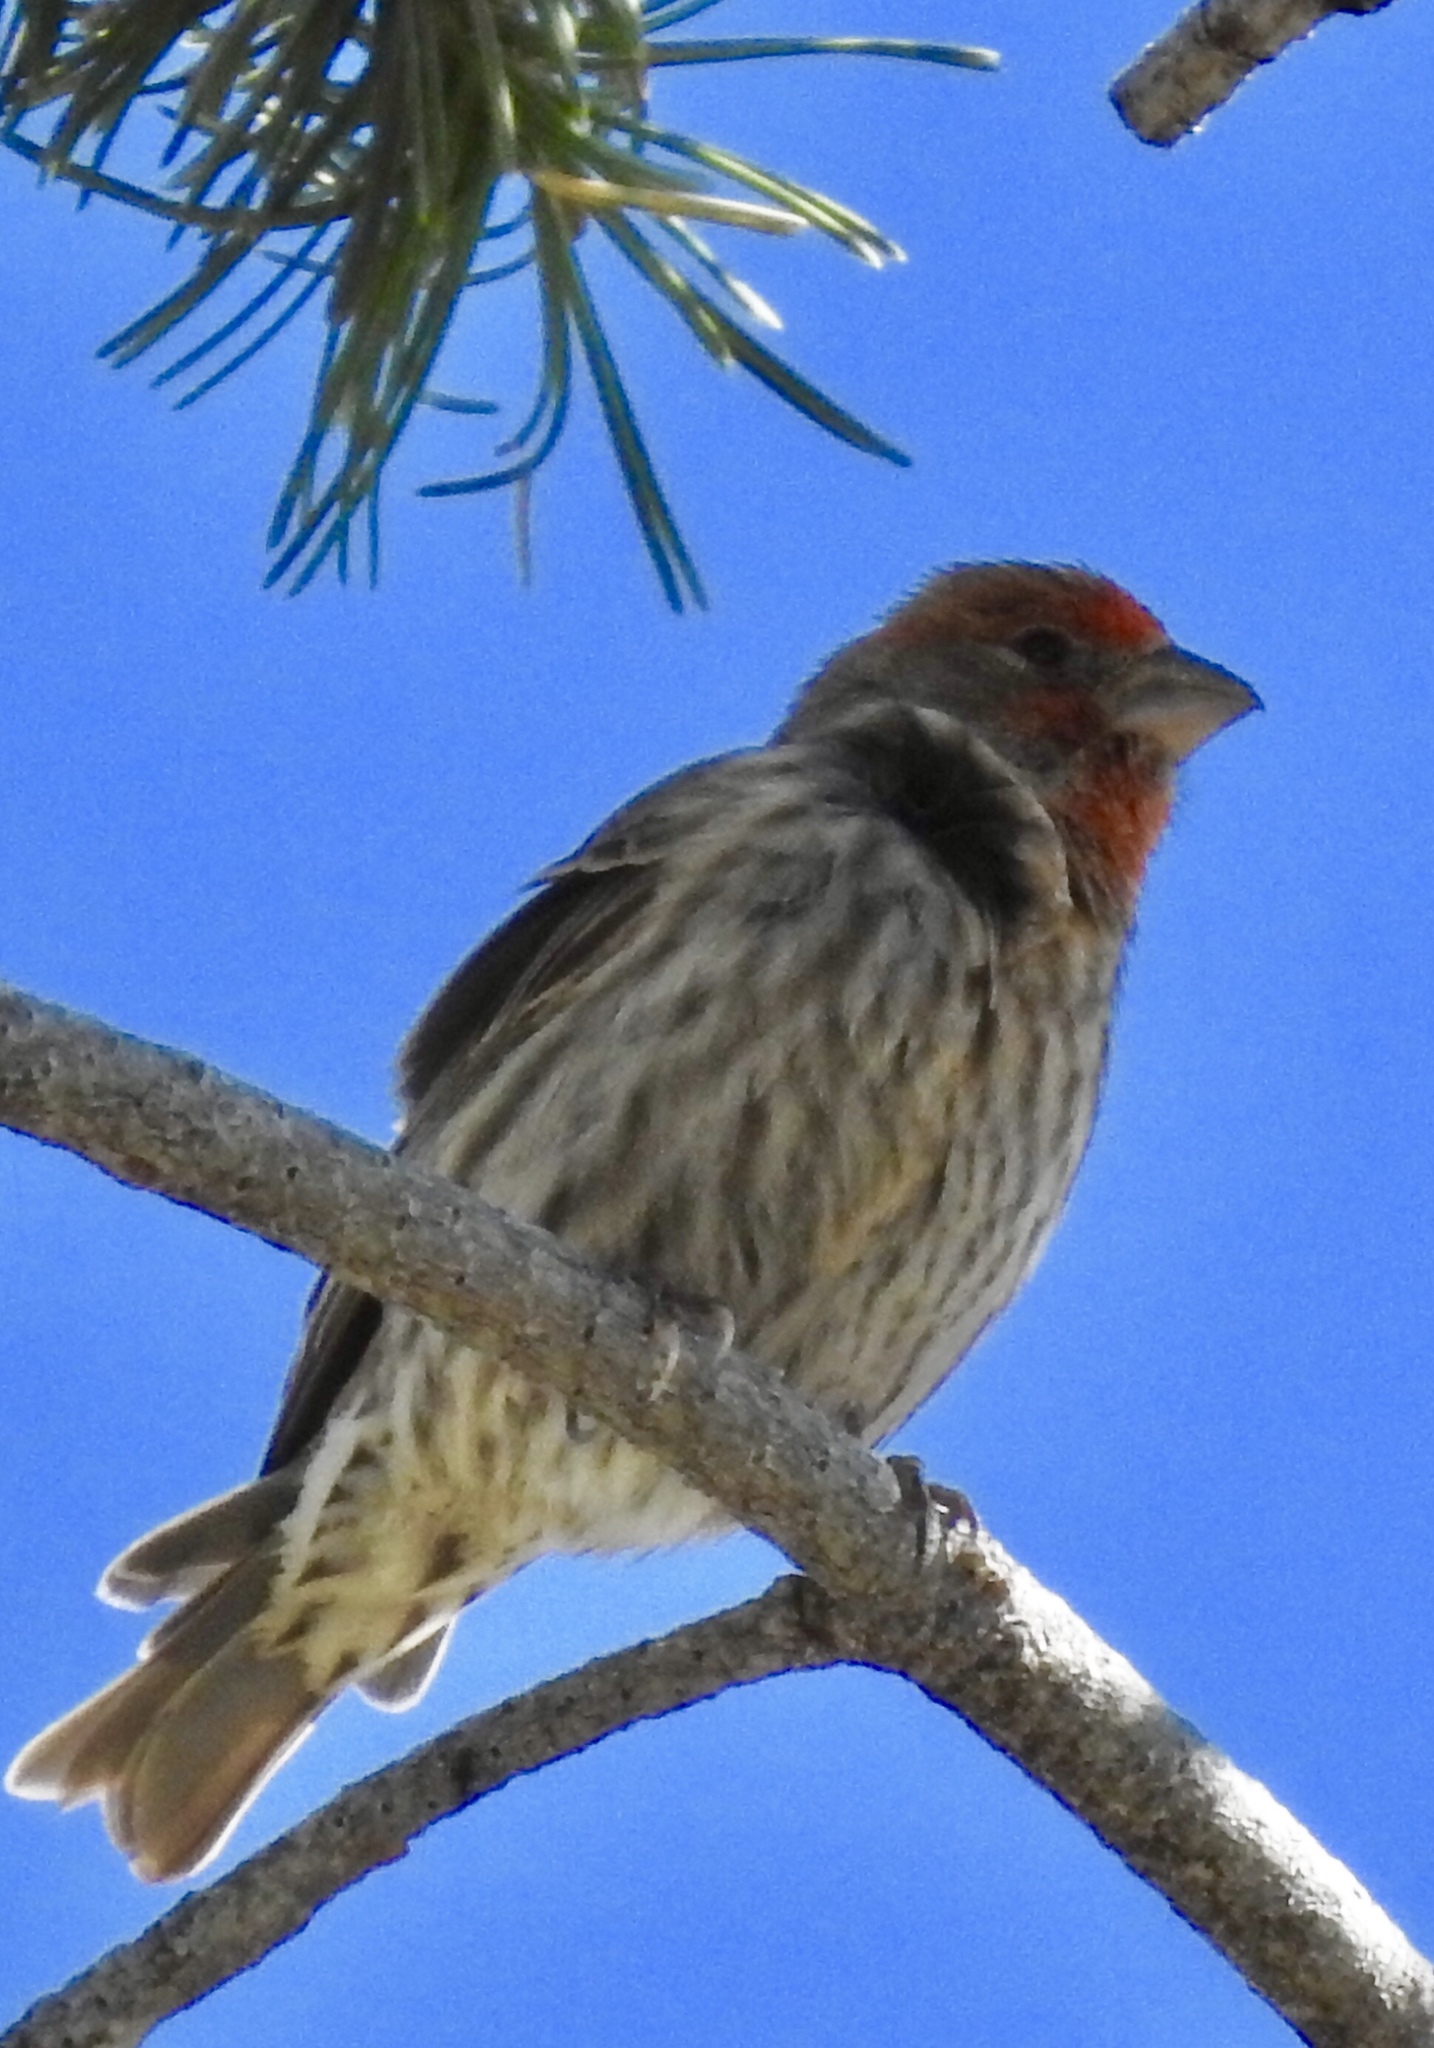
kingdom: Animalia
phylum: Chordata
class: Aves
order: Passeriformes
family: Fringillidae
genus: Haemorhous
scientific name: Haemorhous mexicanus
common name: House finch
